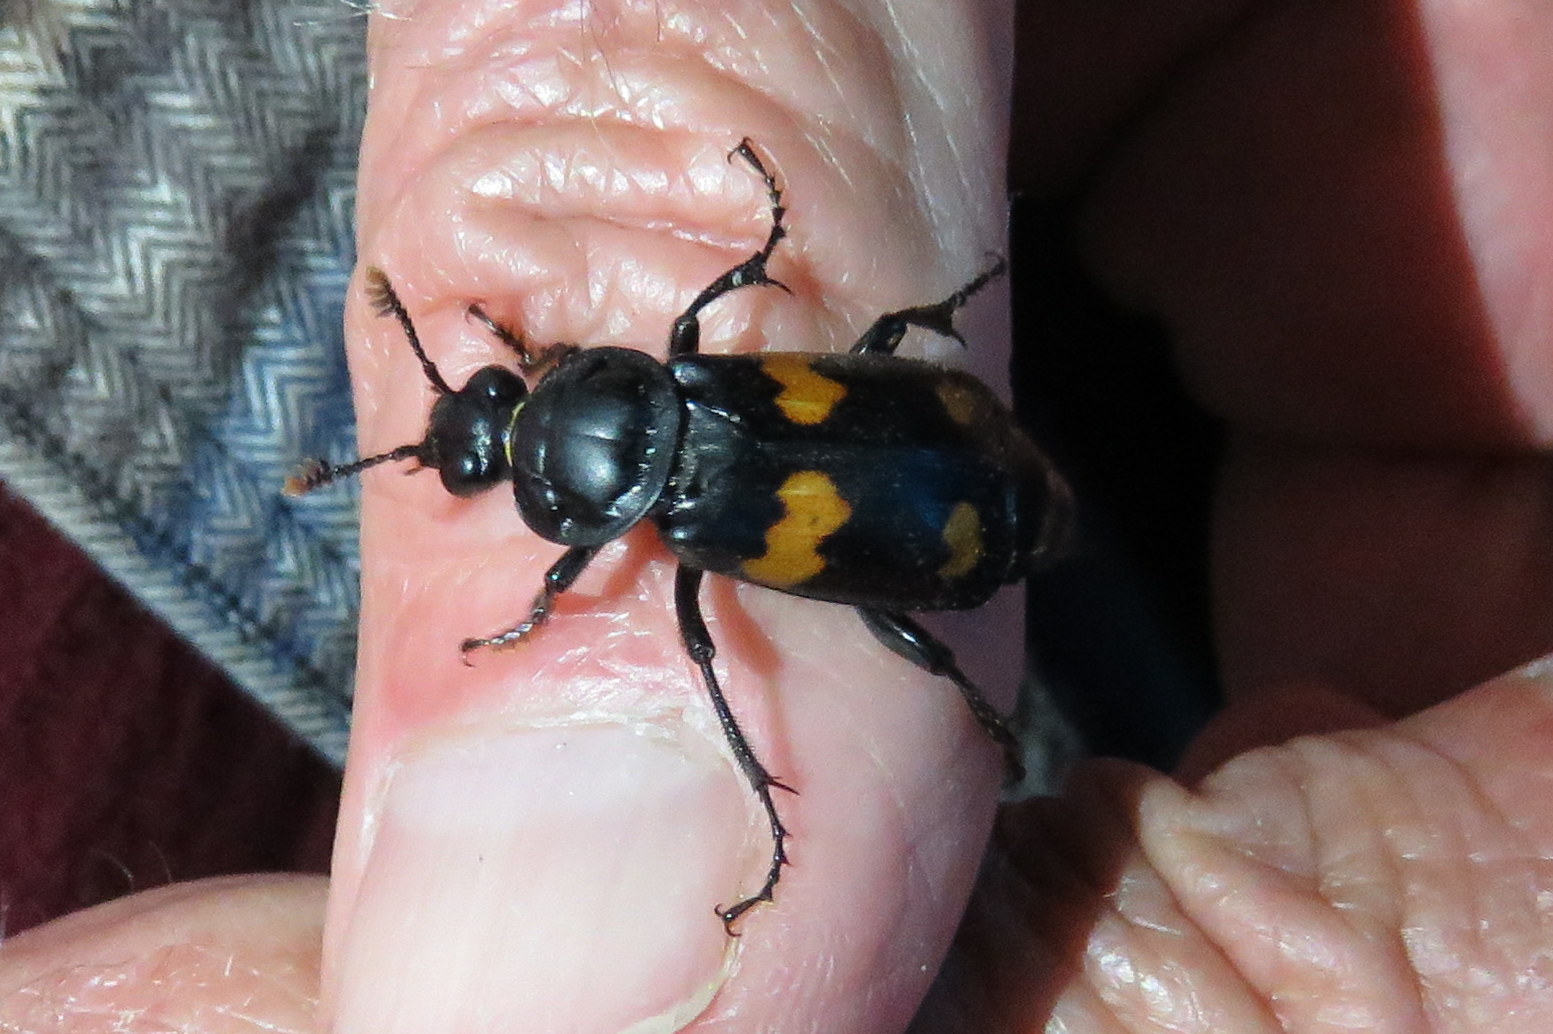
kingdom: Animalia
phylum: Arthropoda
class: Insecta
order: Coleoptera
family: Staphylinidae
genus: Nicrophorus
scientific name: Nicrophorus orbicollis
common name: Roundneck sexton beetle
